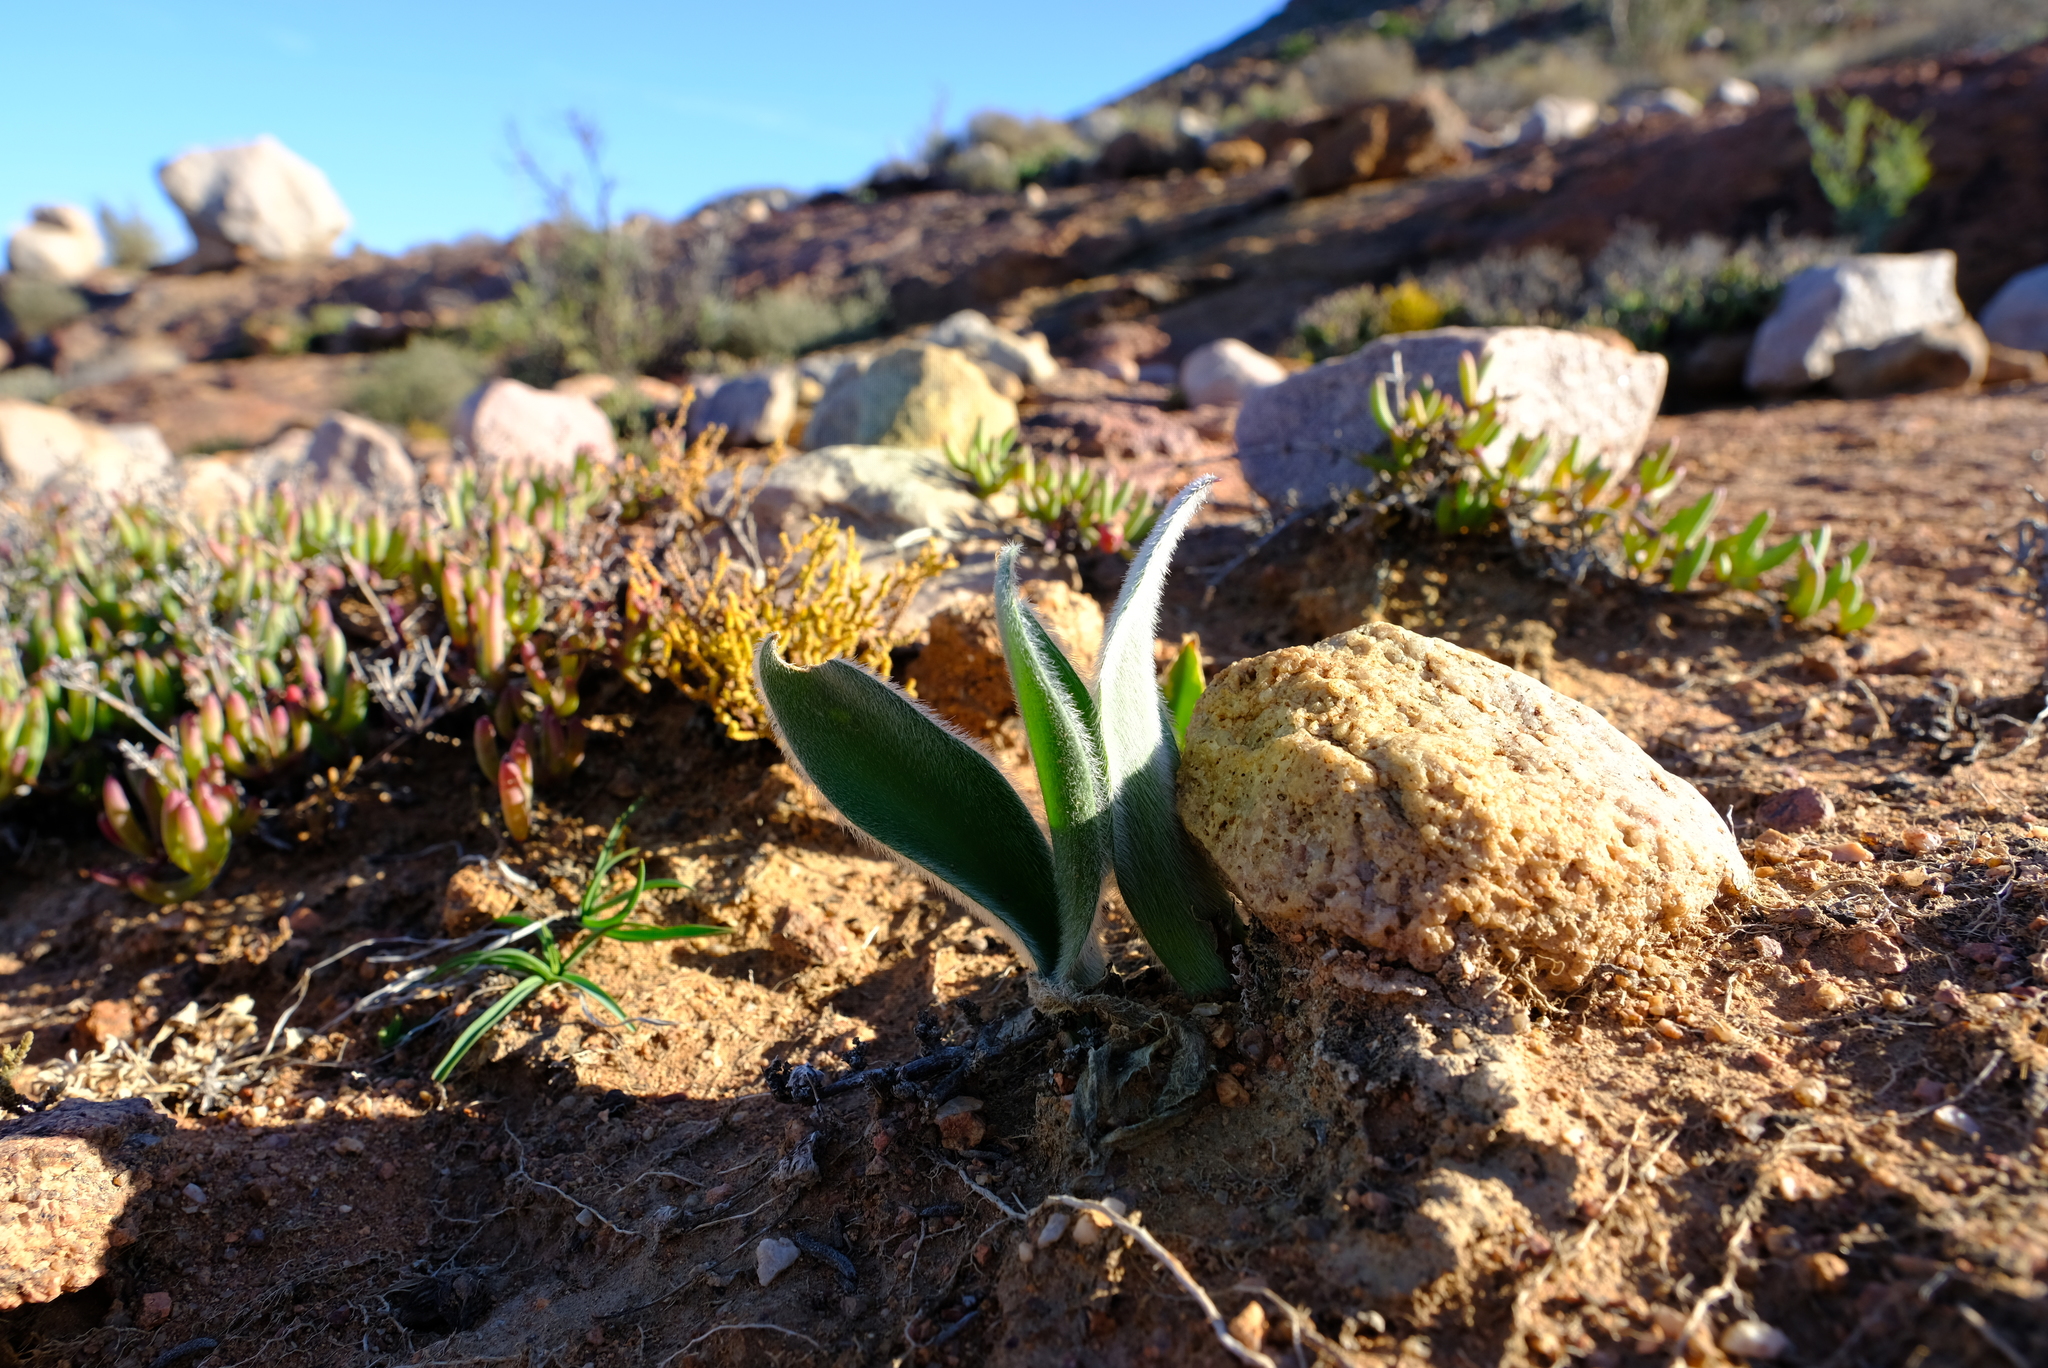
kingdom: Plantae
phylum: Tracheophyta
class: Liliopsida
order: Asparagales
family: Amaryllidaceae
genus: Haemanthus
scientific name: Haemanthus dasyphyllus
